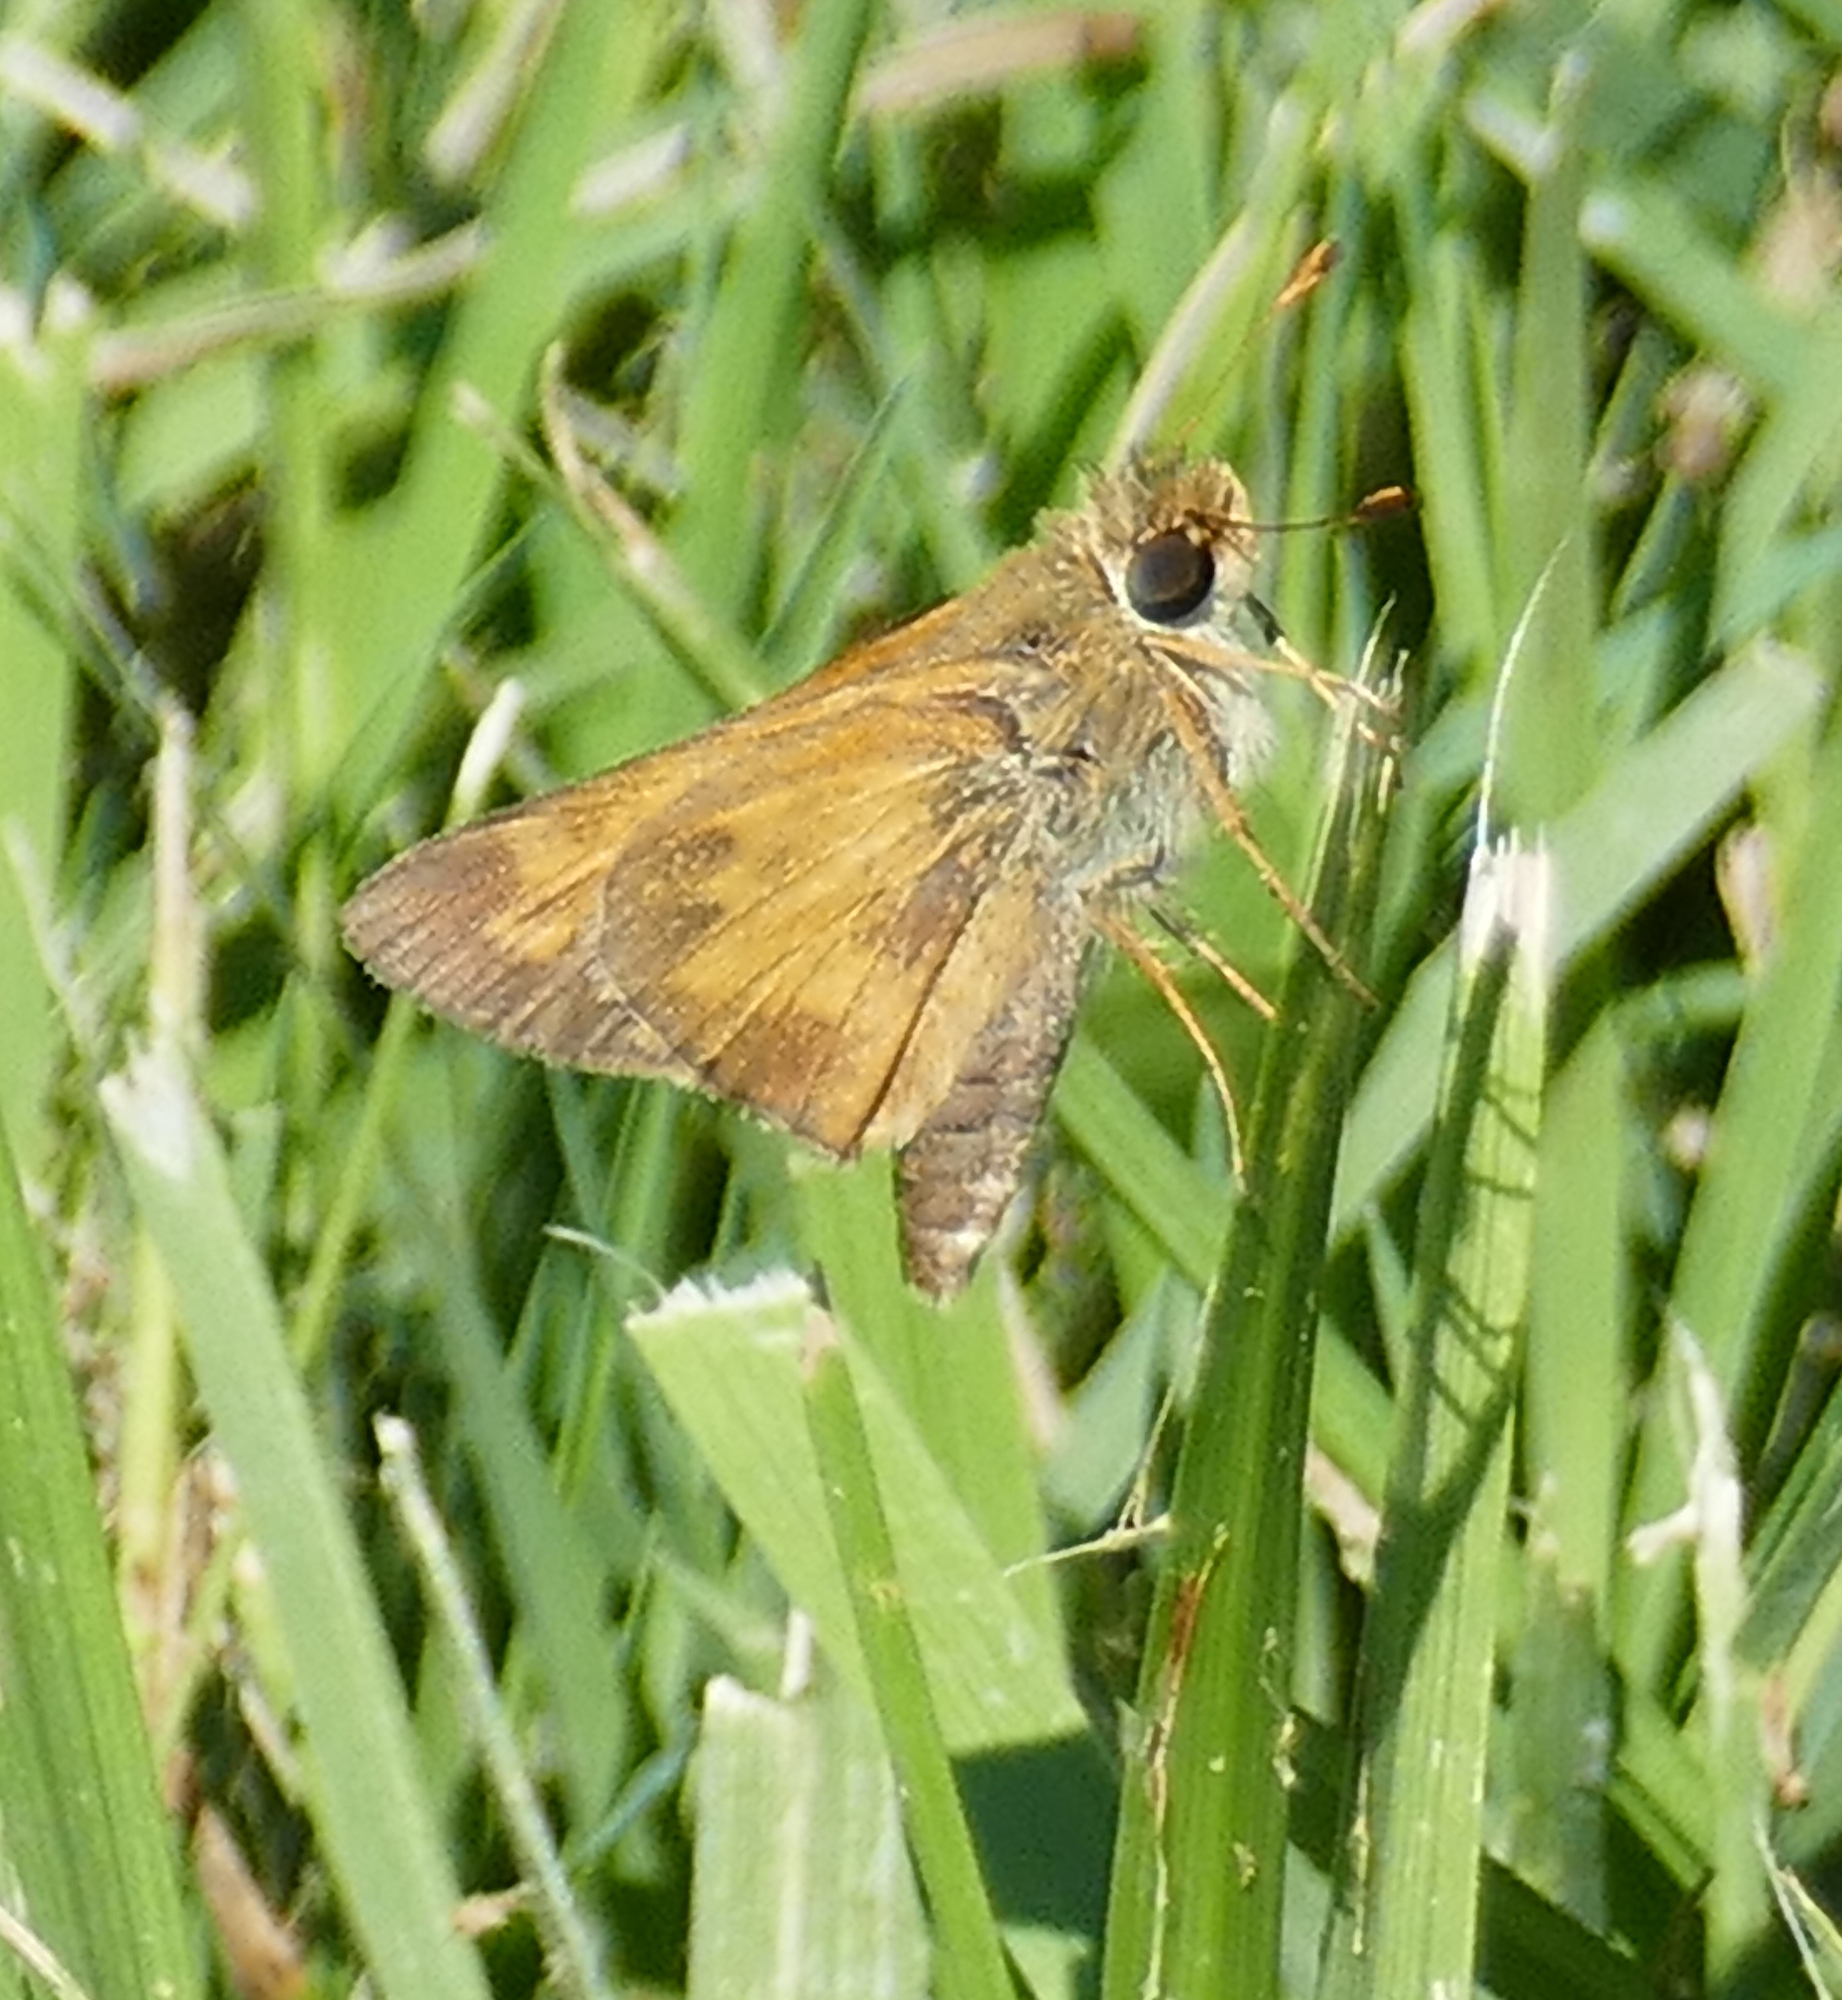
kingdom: Animalia
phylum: Arthropoda
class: Insecta
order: Lepidoptera
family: Hesperiidae
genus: Atalopedes
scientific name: Atalopedes
